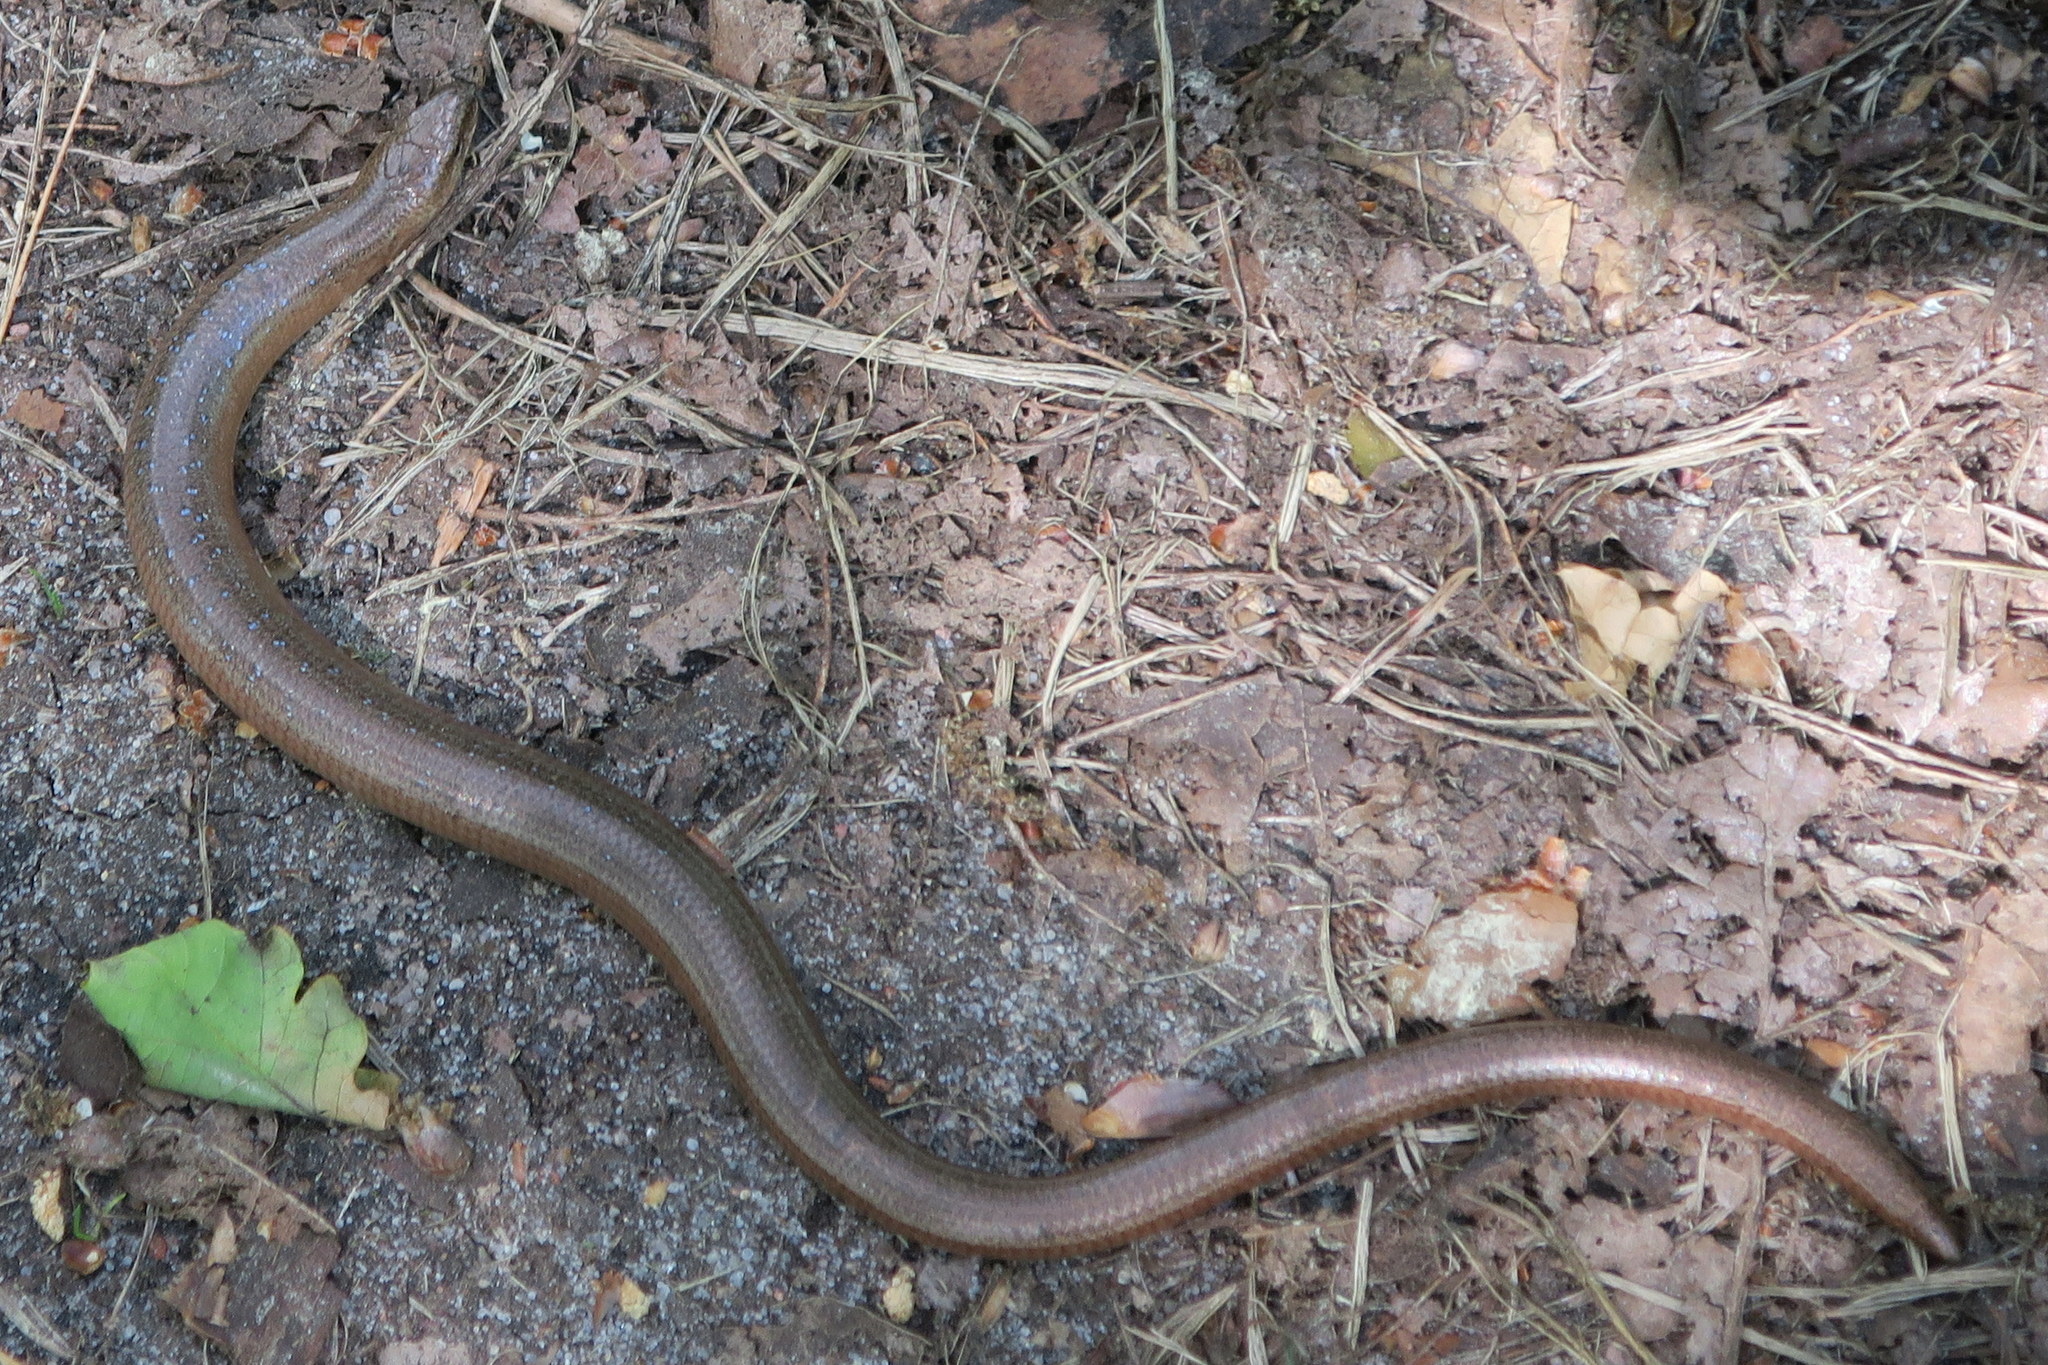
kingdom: Animalia
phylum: Chordata
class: Squamata
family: Anguidae
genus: Anguis
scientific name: Anguis fragilis
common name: Slow worm
